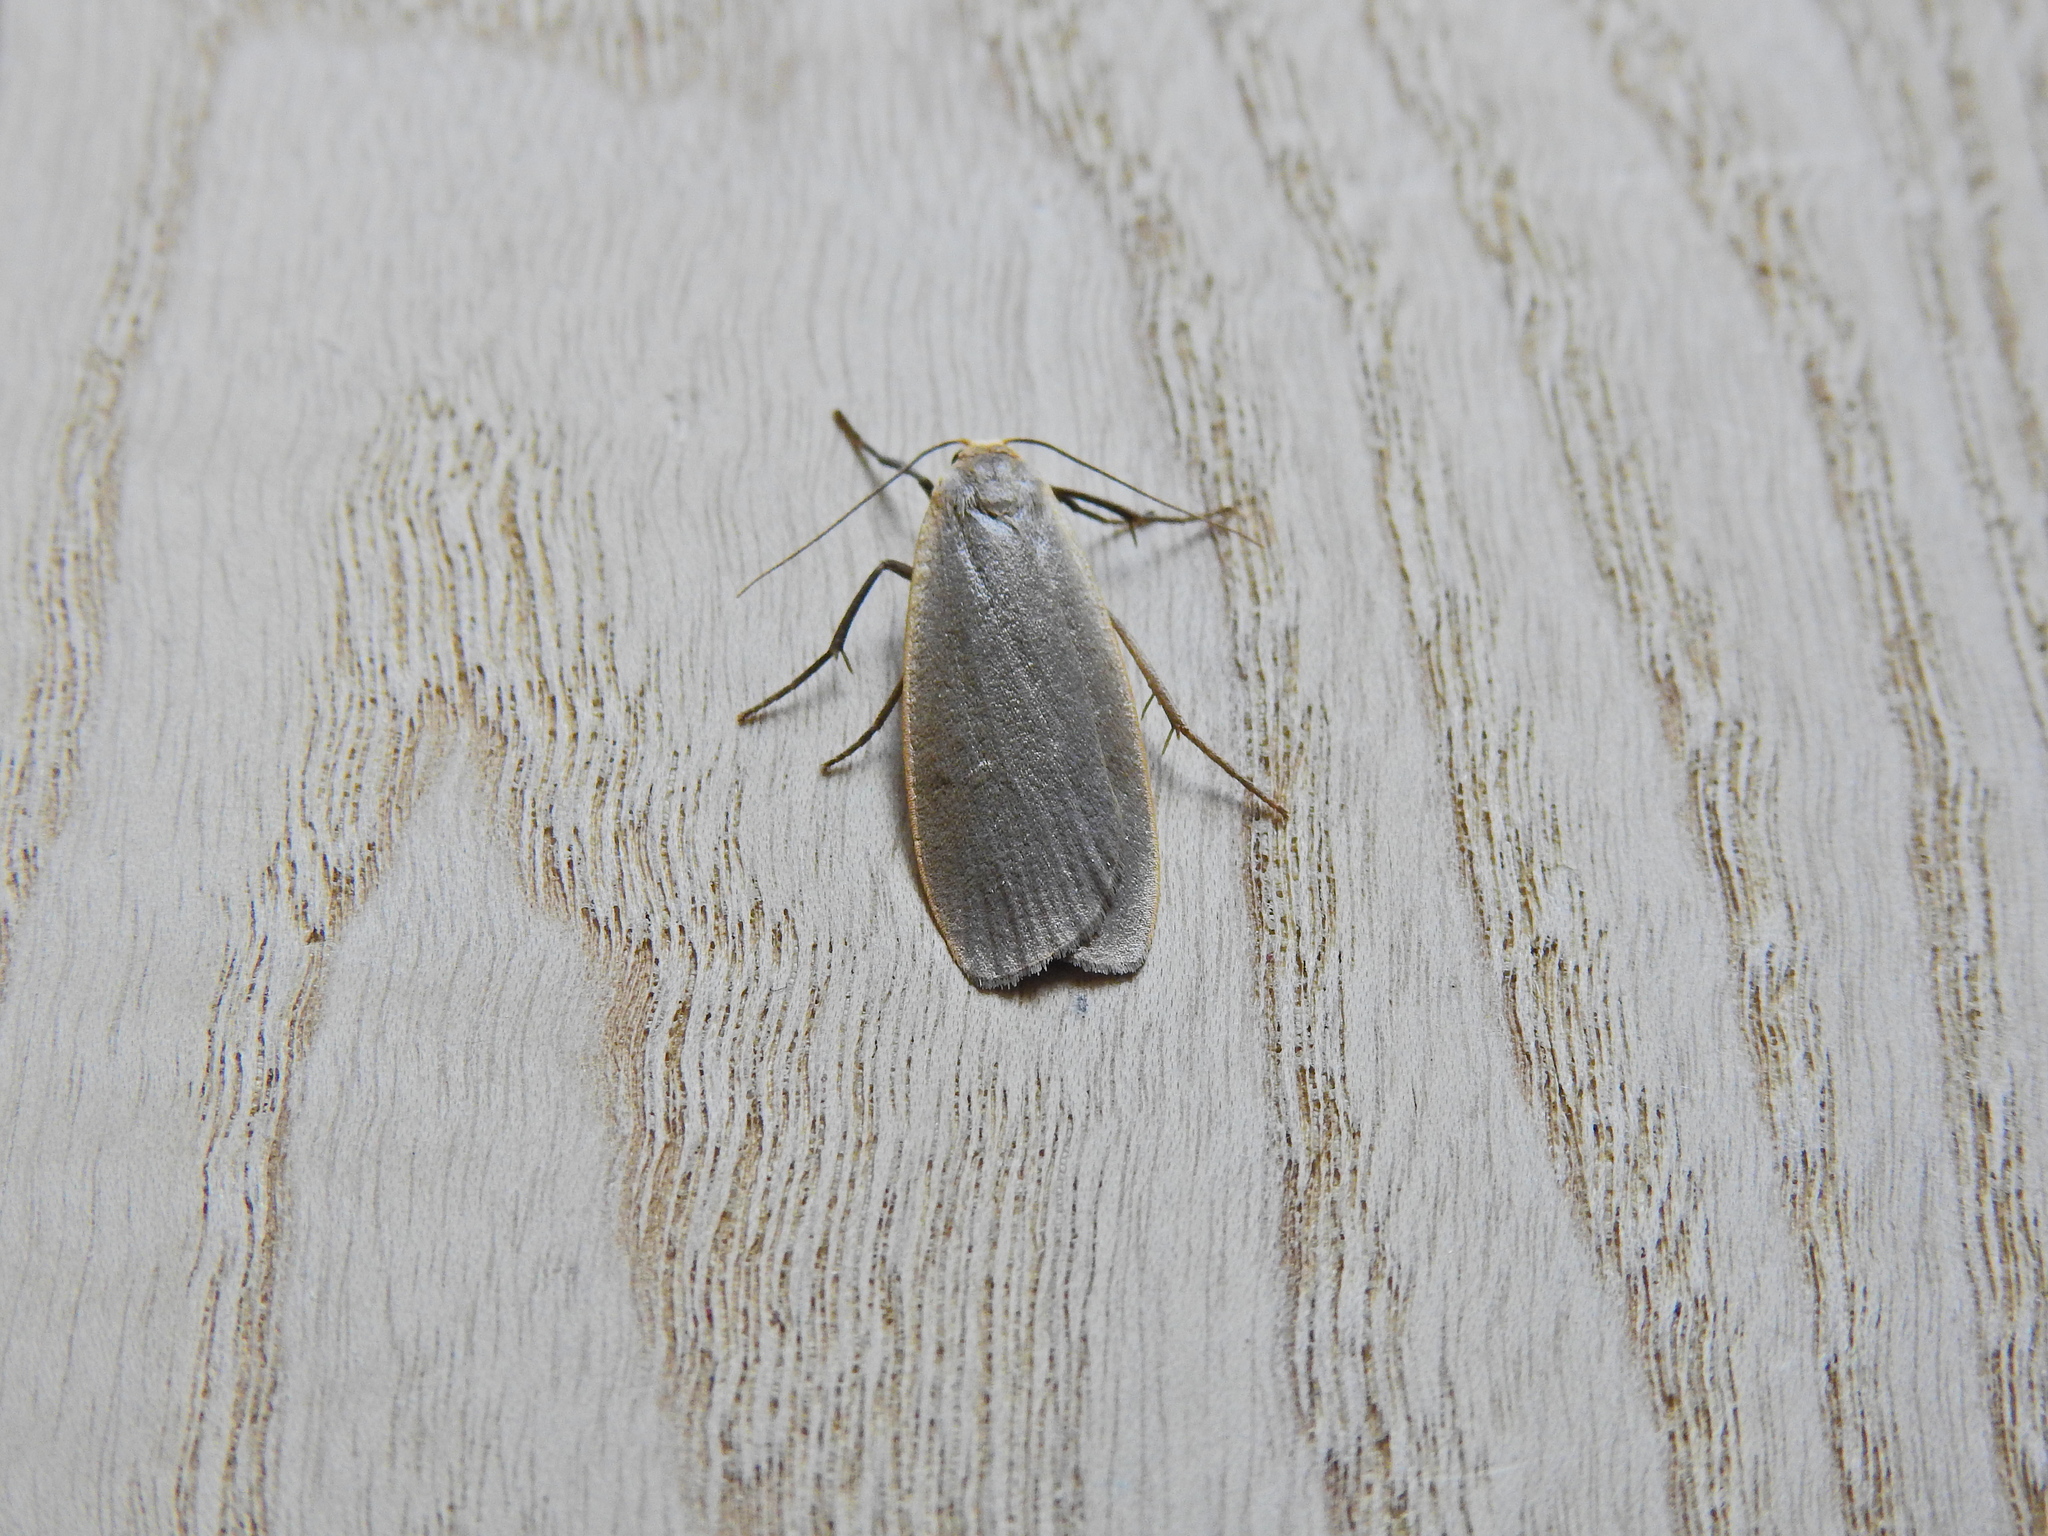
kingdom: Animalia
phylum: Arthropoda
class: Insecta
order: Lepidoptera
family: Erebidae
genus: Collita
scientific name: Collita griseola
